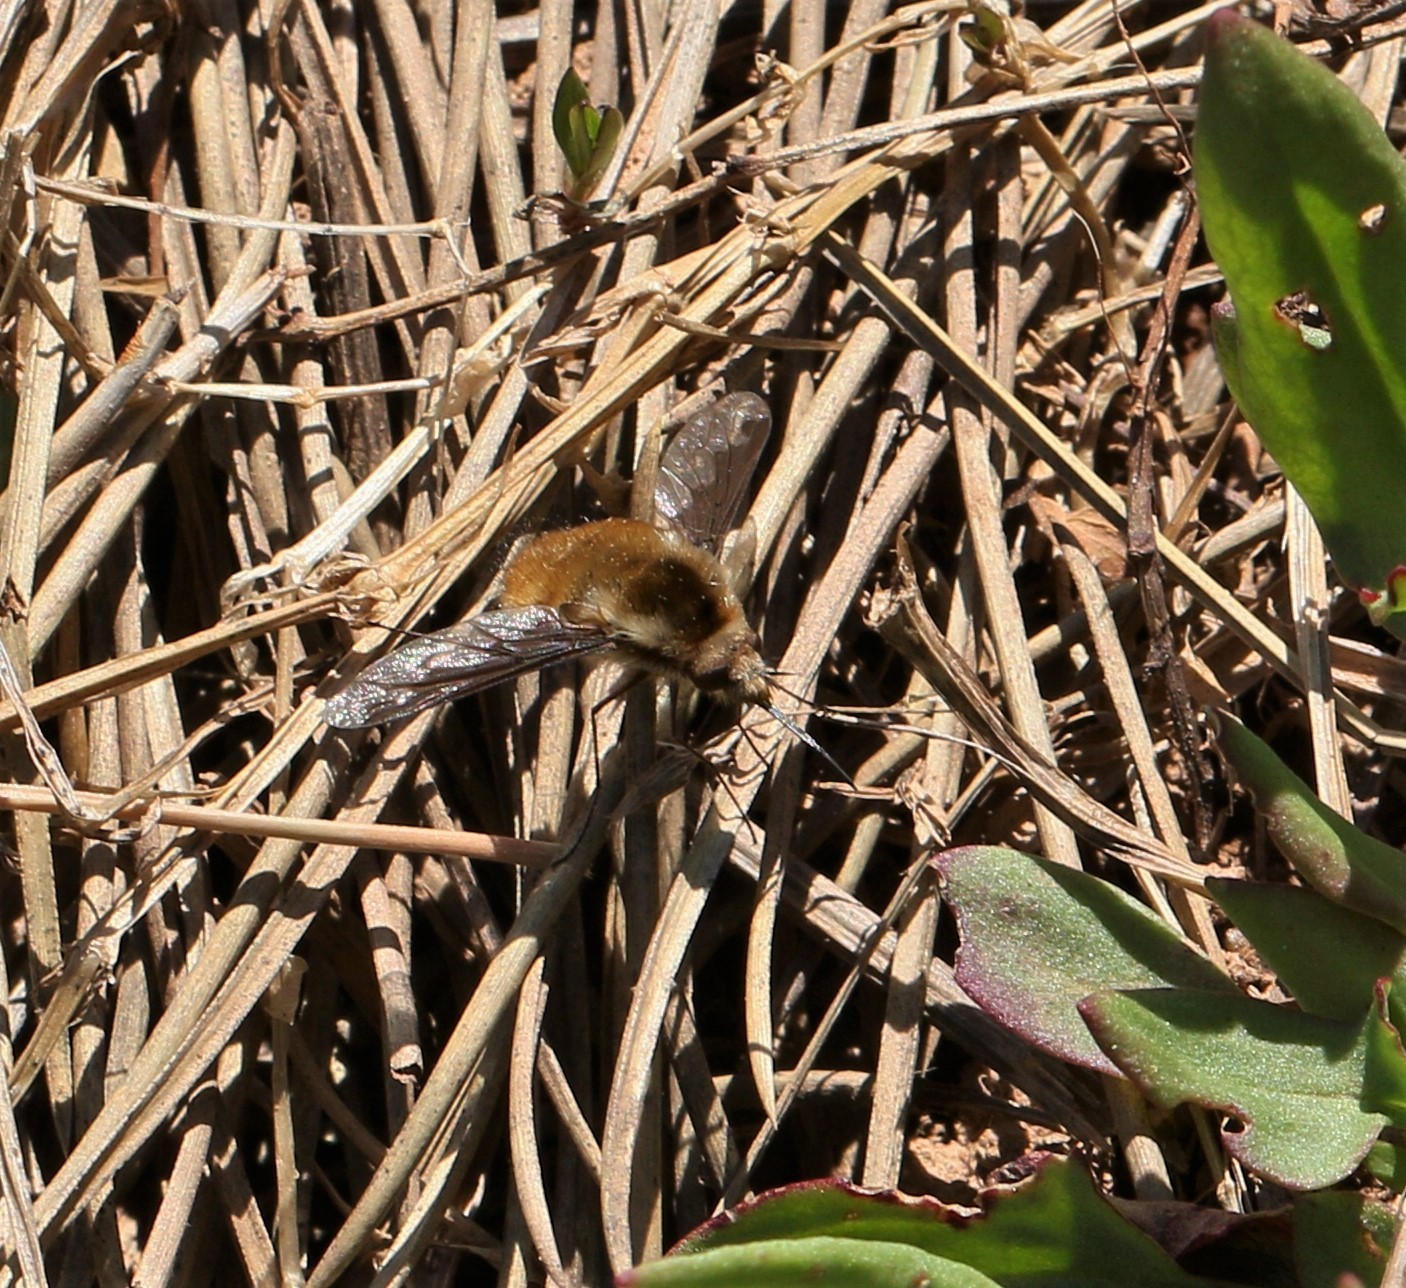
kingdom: Animalia
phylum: Arthropoda
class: Insecta
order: Diptera
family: Bombyliidae
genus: Bombylius
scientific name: Bombylius major
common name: Bee fly
